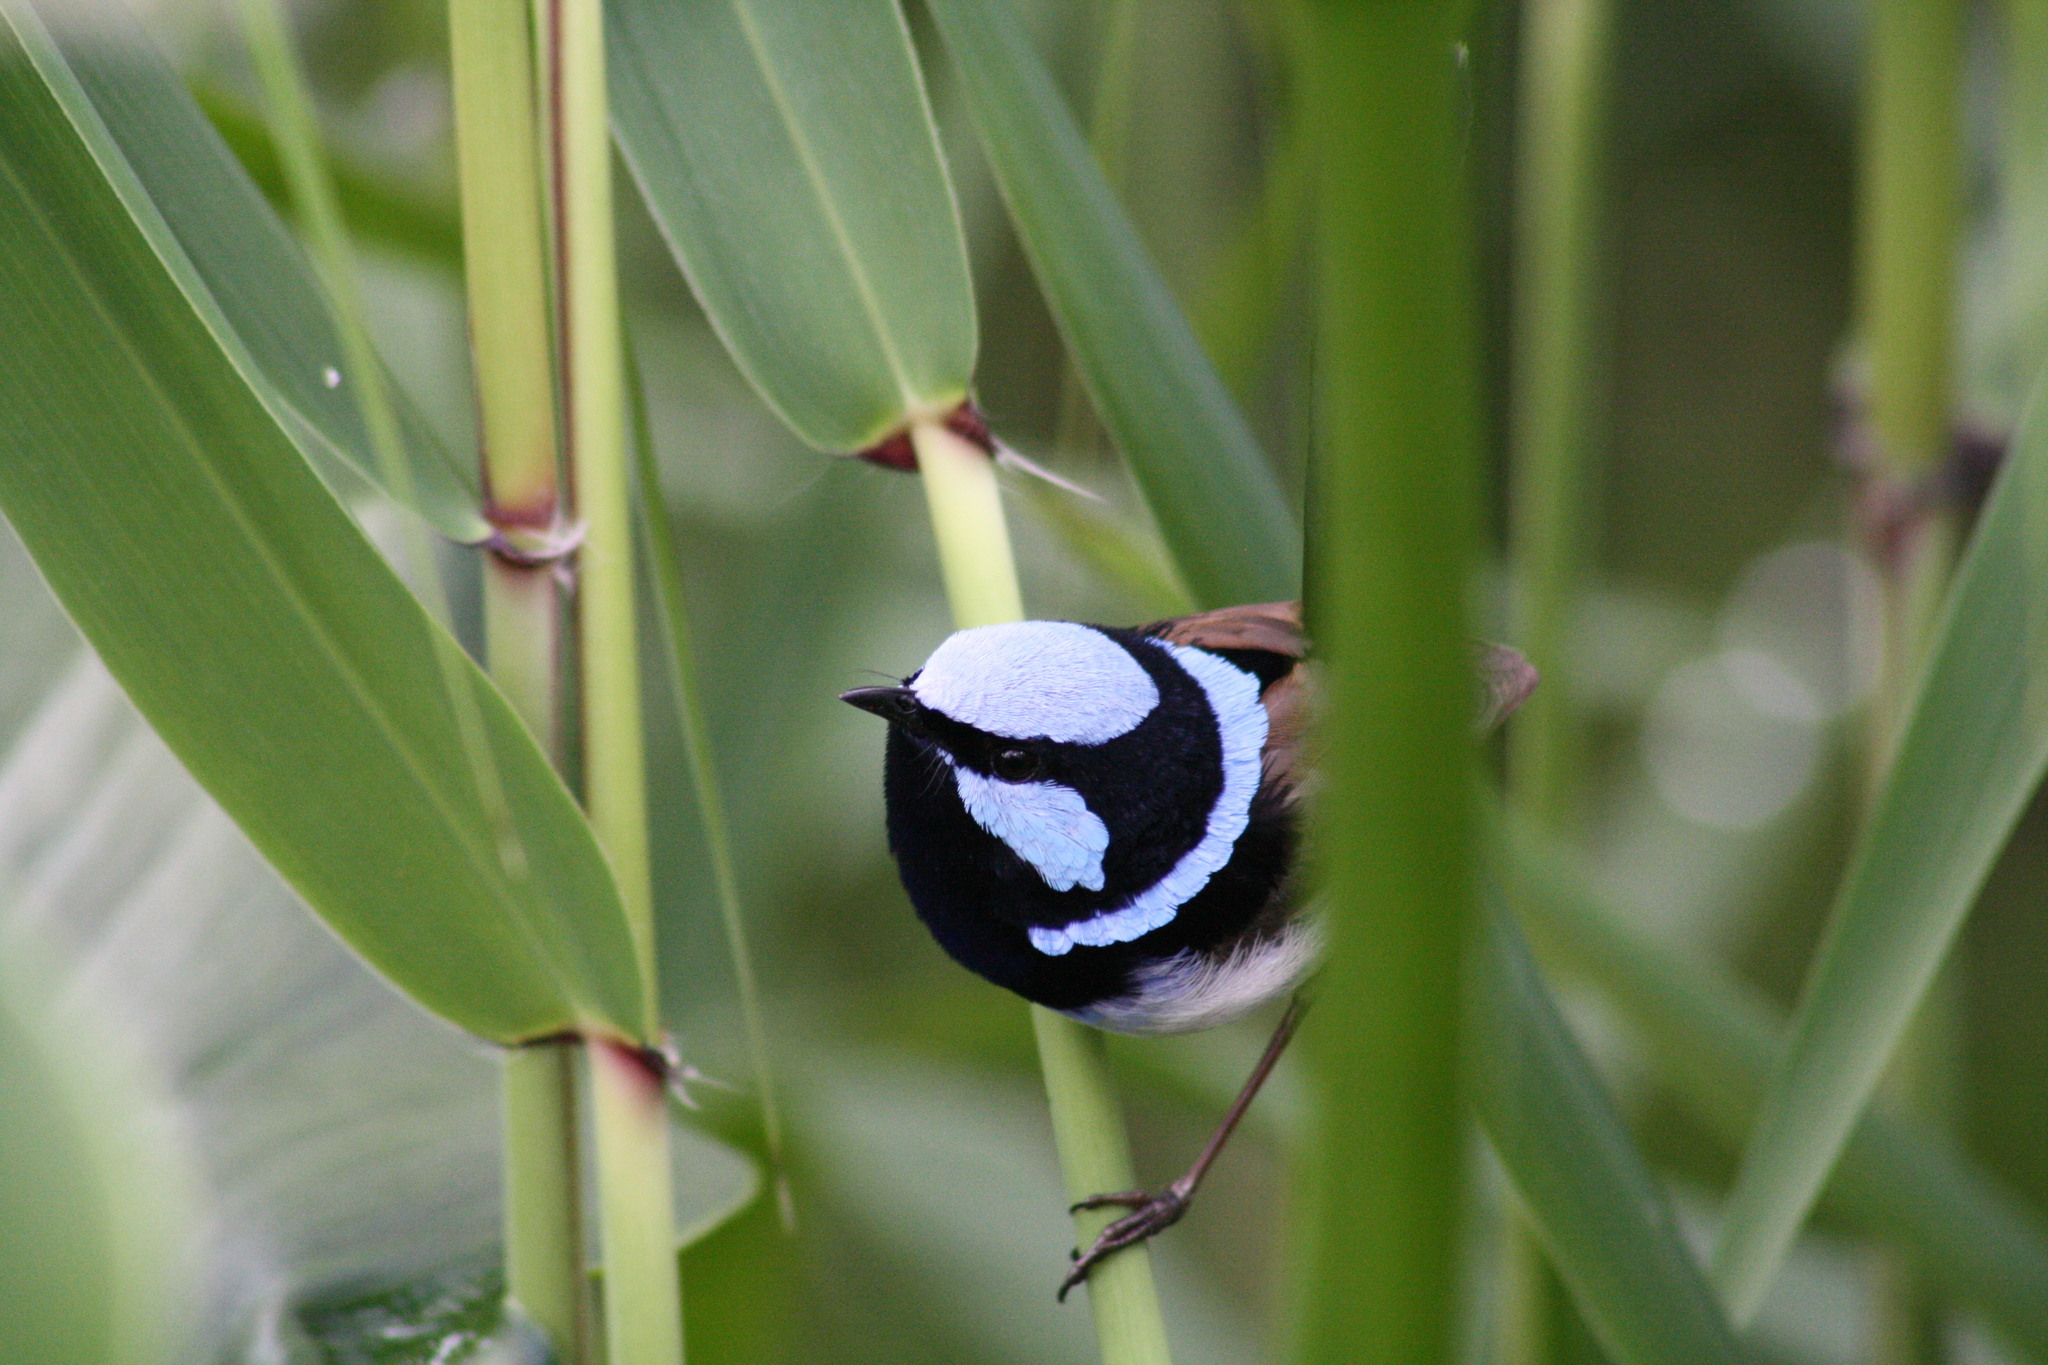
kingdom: Animalia
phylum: Chordata
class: Aves
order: Passeriformes
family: Maluridae
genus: Malurus
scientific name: Malurus cyaneus
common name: Superb fairywren
